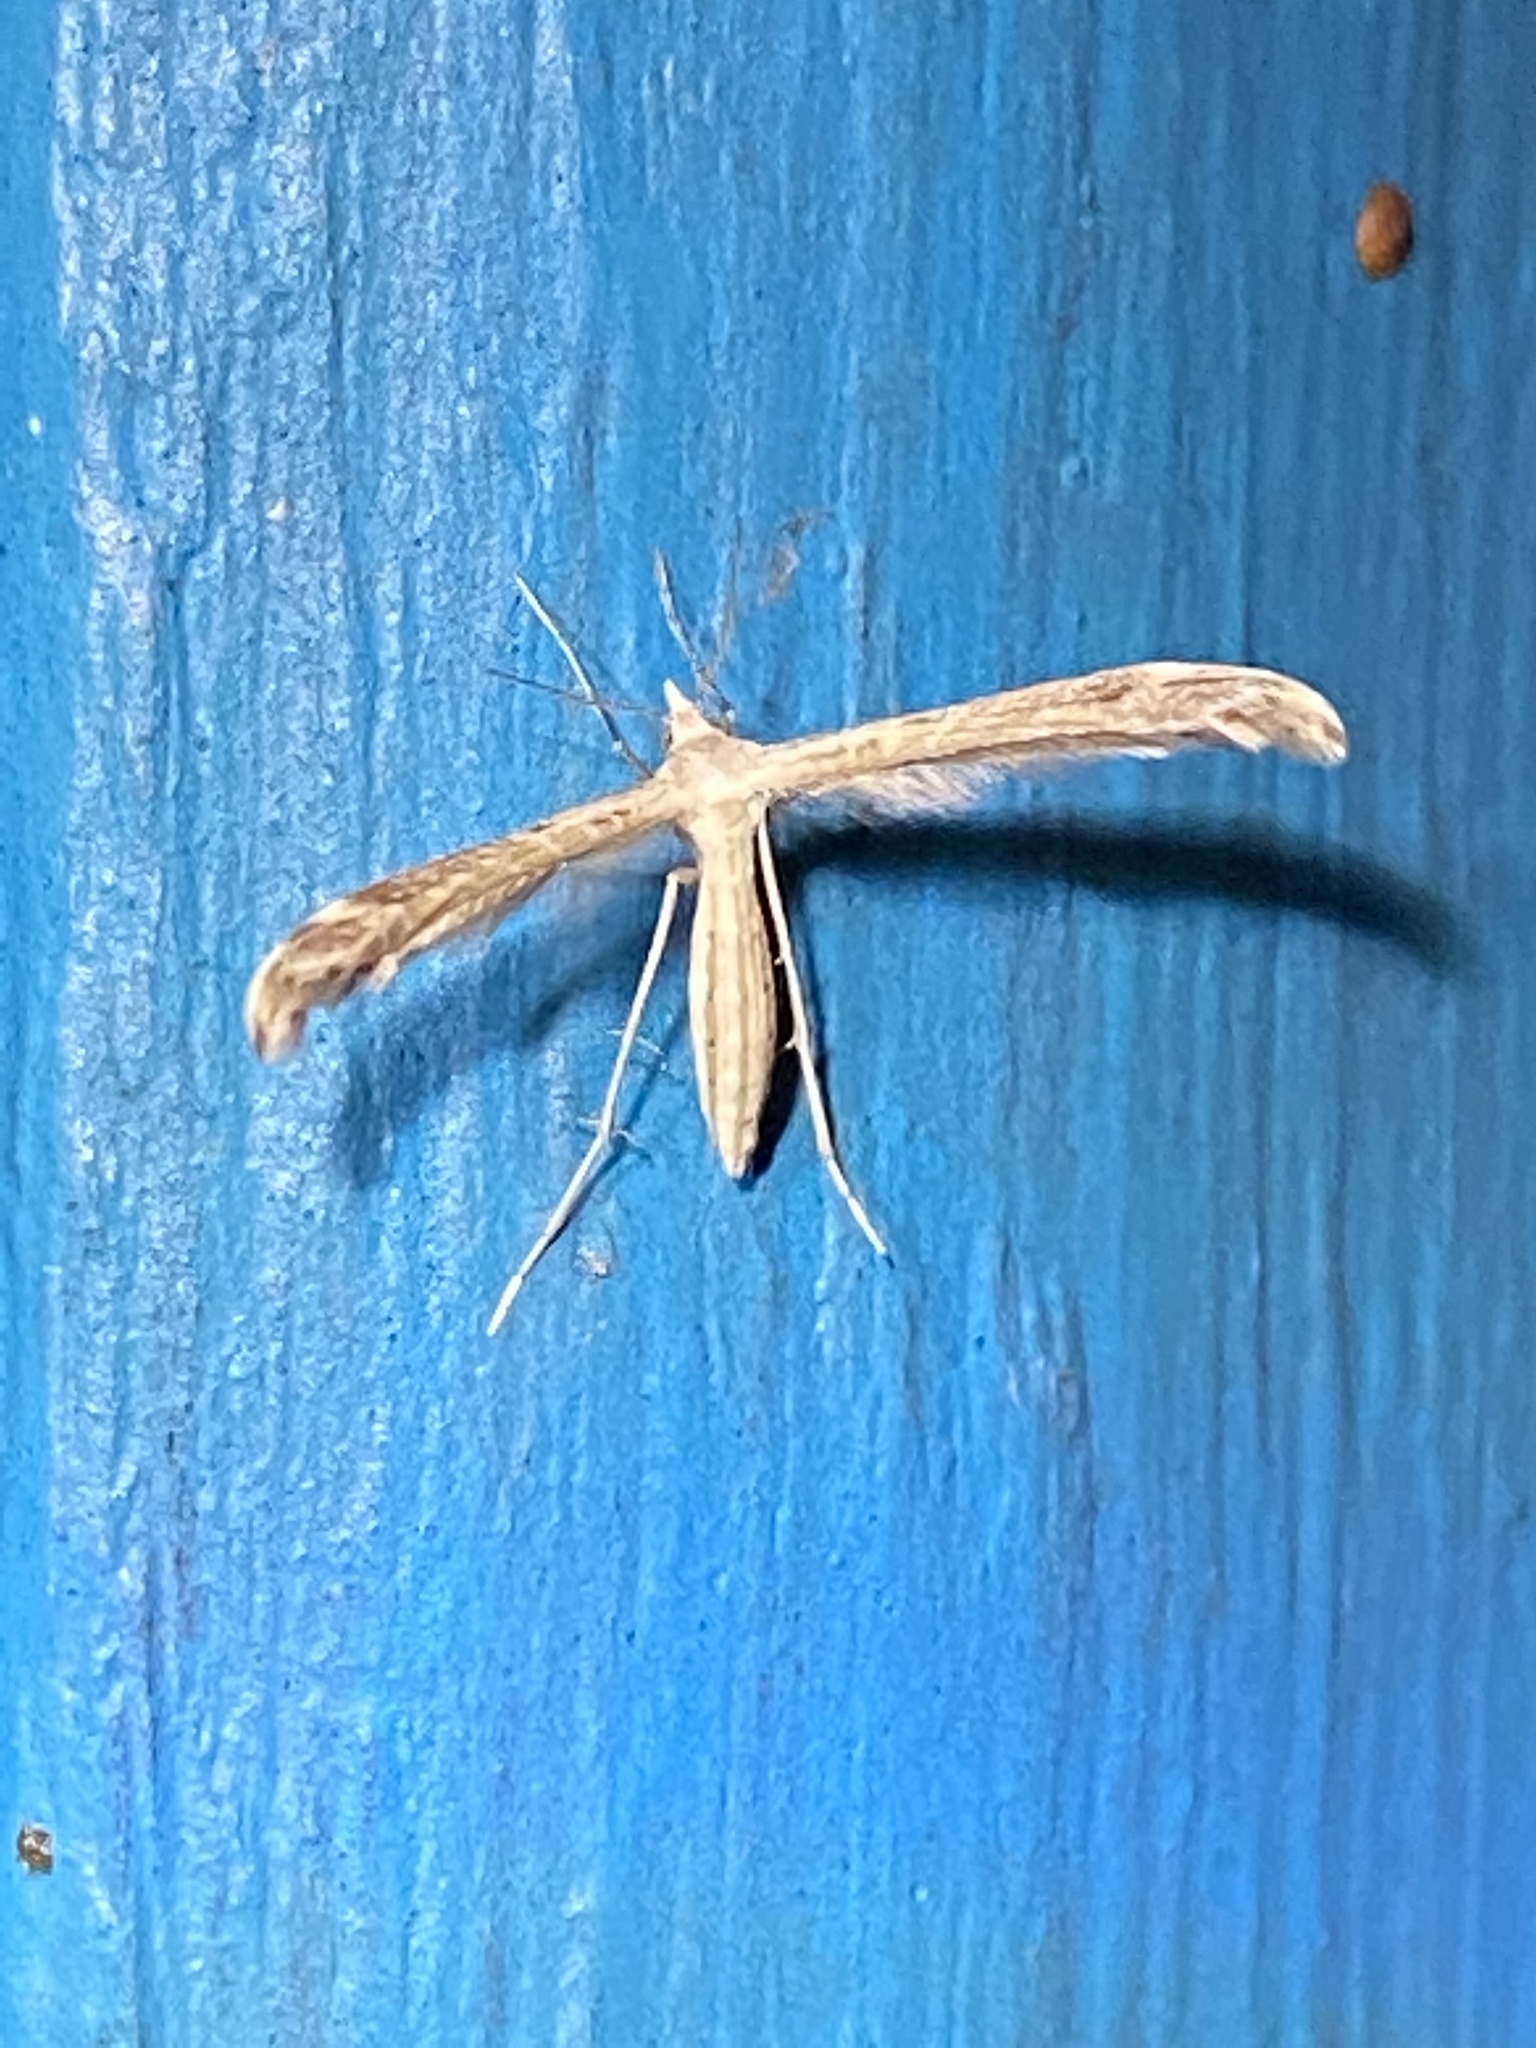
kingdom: Animalia
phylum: Arthropoda
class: Insecta
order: Lepidoptera
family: Pterophoridae
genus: Lioptilodes
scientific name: Lioptilodes albistriolatus
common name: Moth
